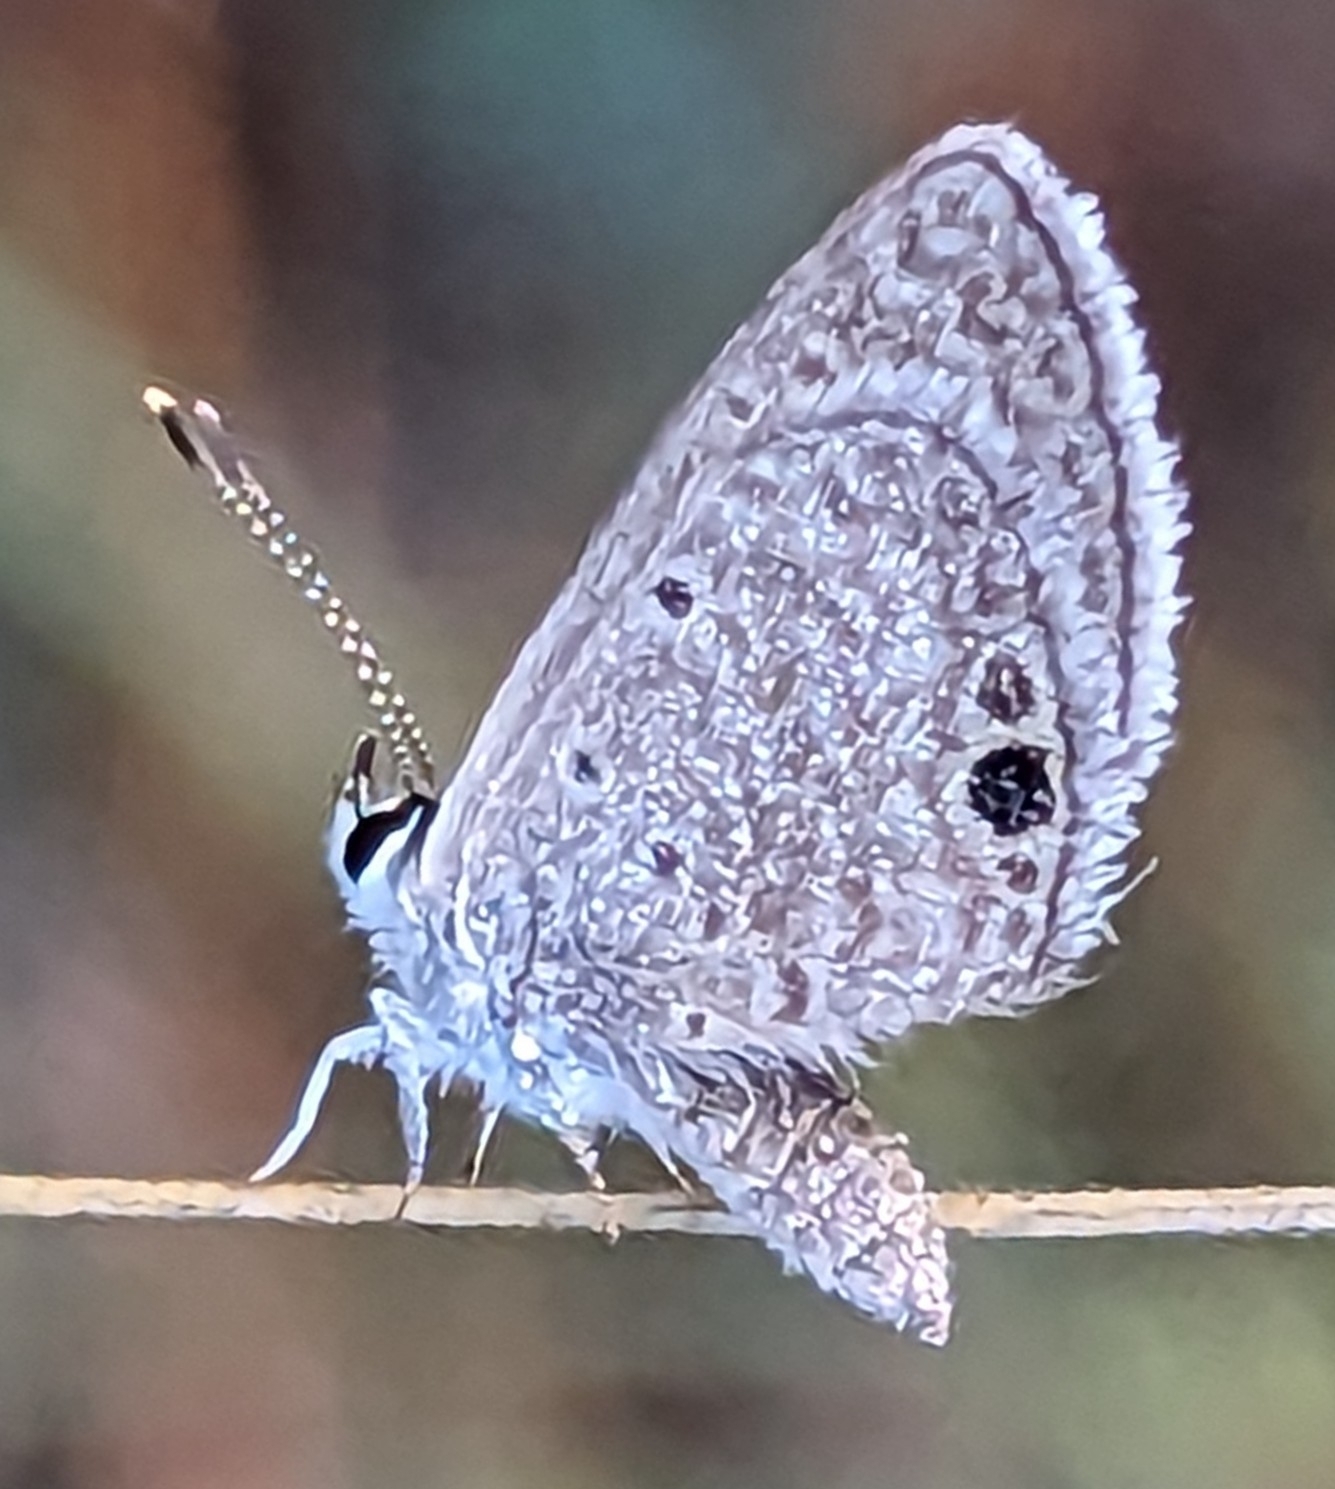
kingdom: Animalia
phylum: Arthropoda
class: Insecta
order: Lepidoptera
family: Lycaenidae
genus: Echinargus
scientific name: Echinargus isola
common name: Reakirt's blue
